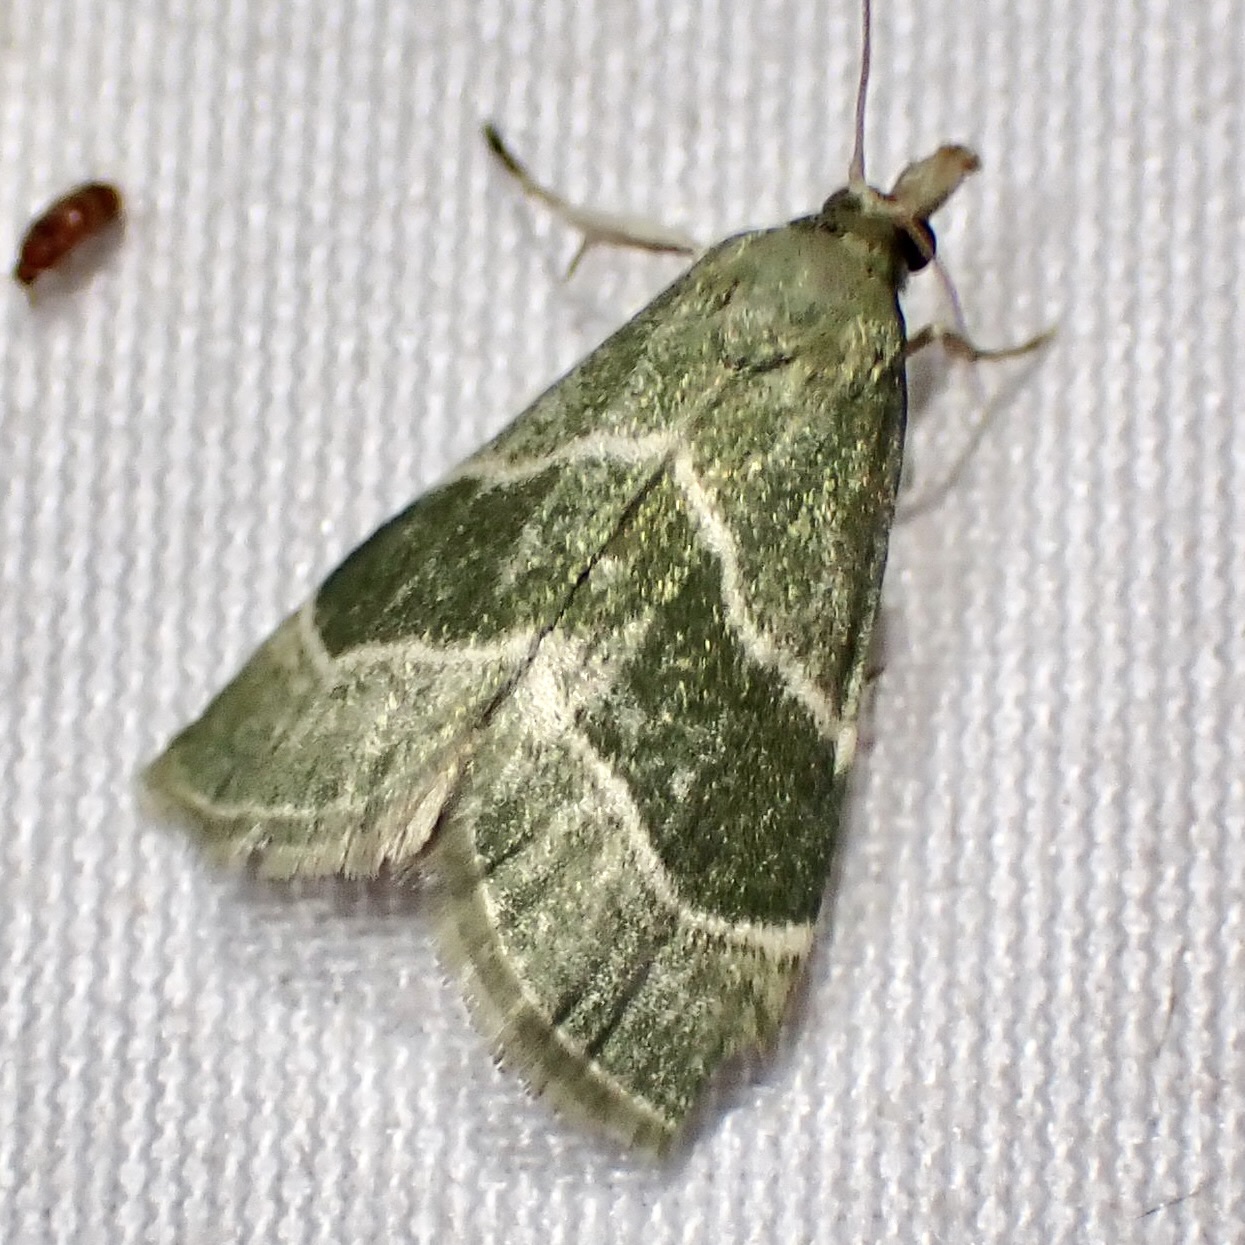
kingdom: Animalia
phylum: Arthropoda
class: Insecta
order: Lepidoptera
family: Pyralidae
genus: Anemosella
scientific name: Anemosella viridalis
